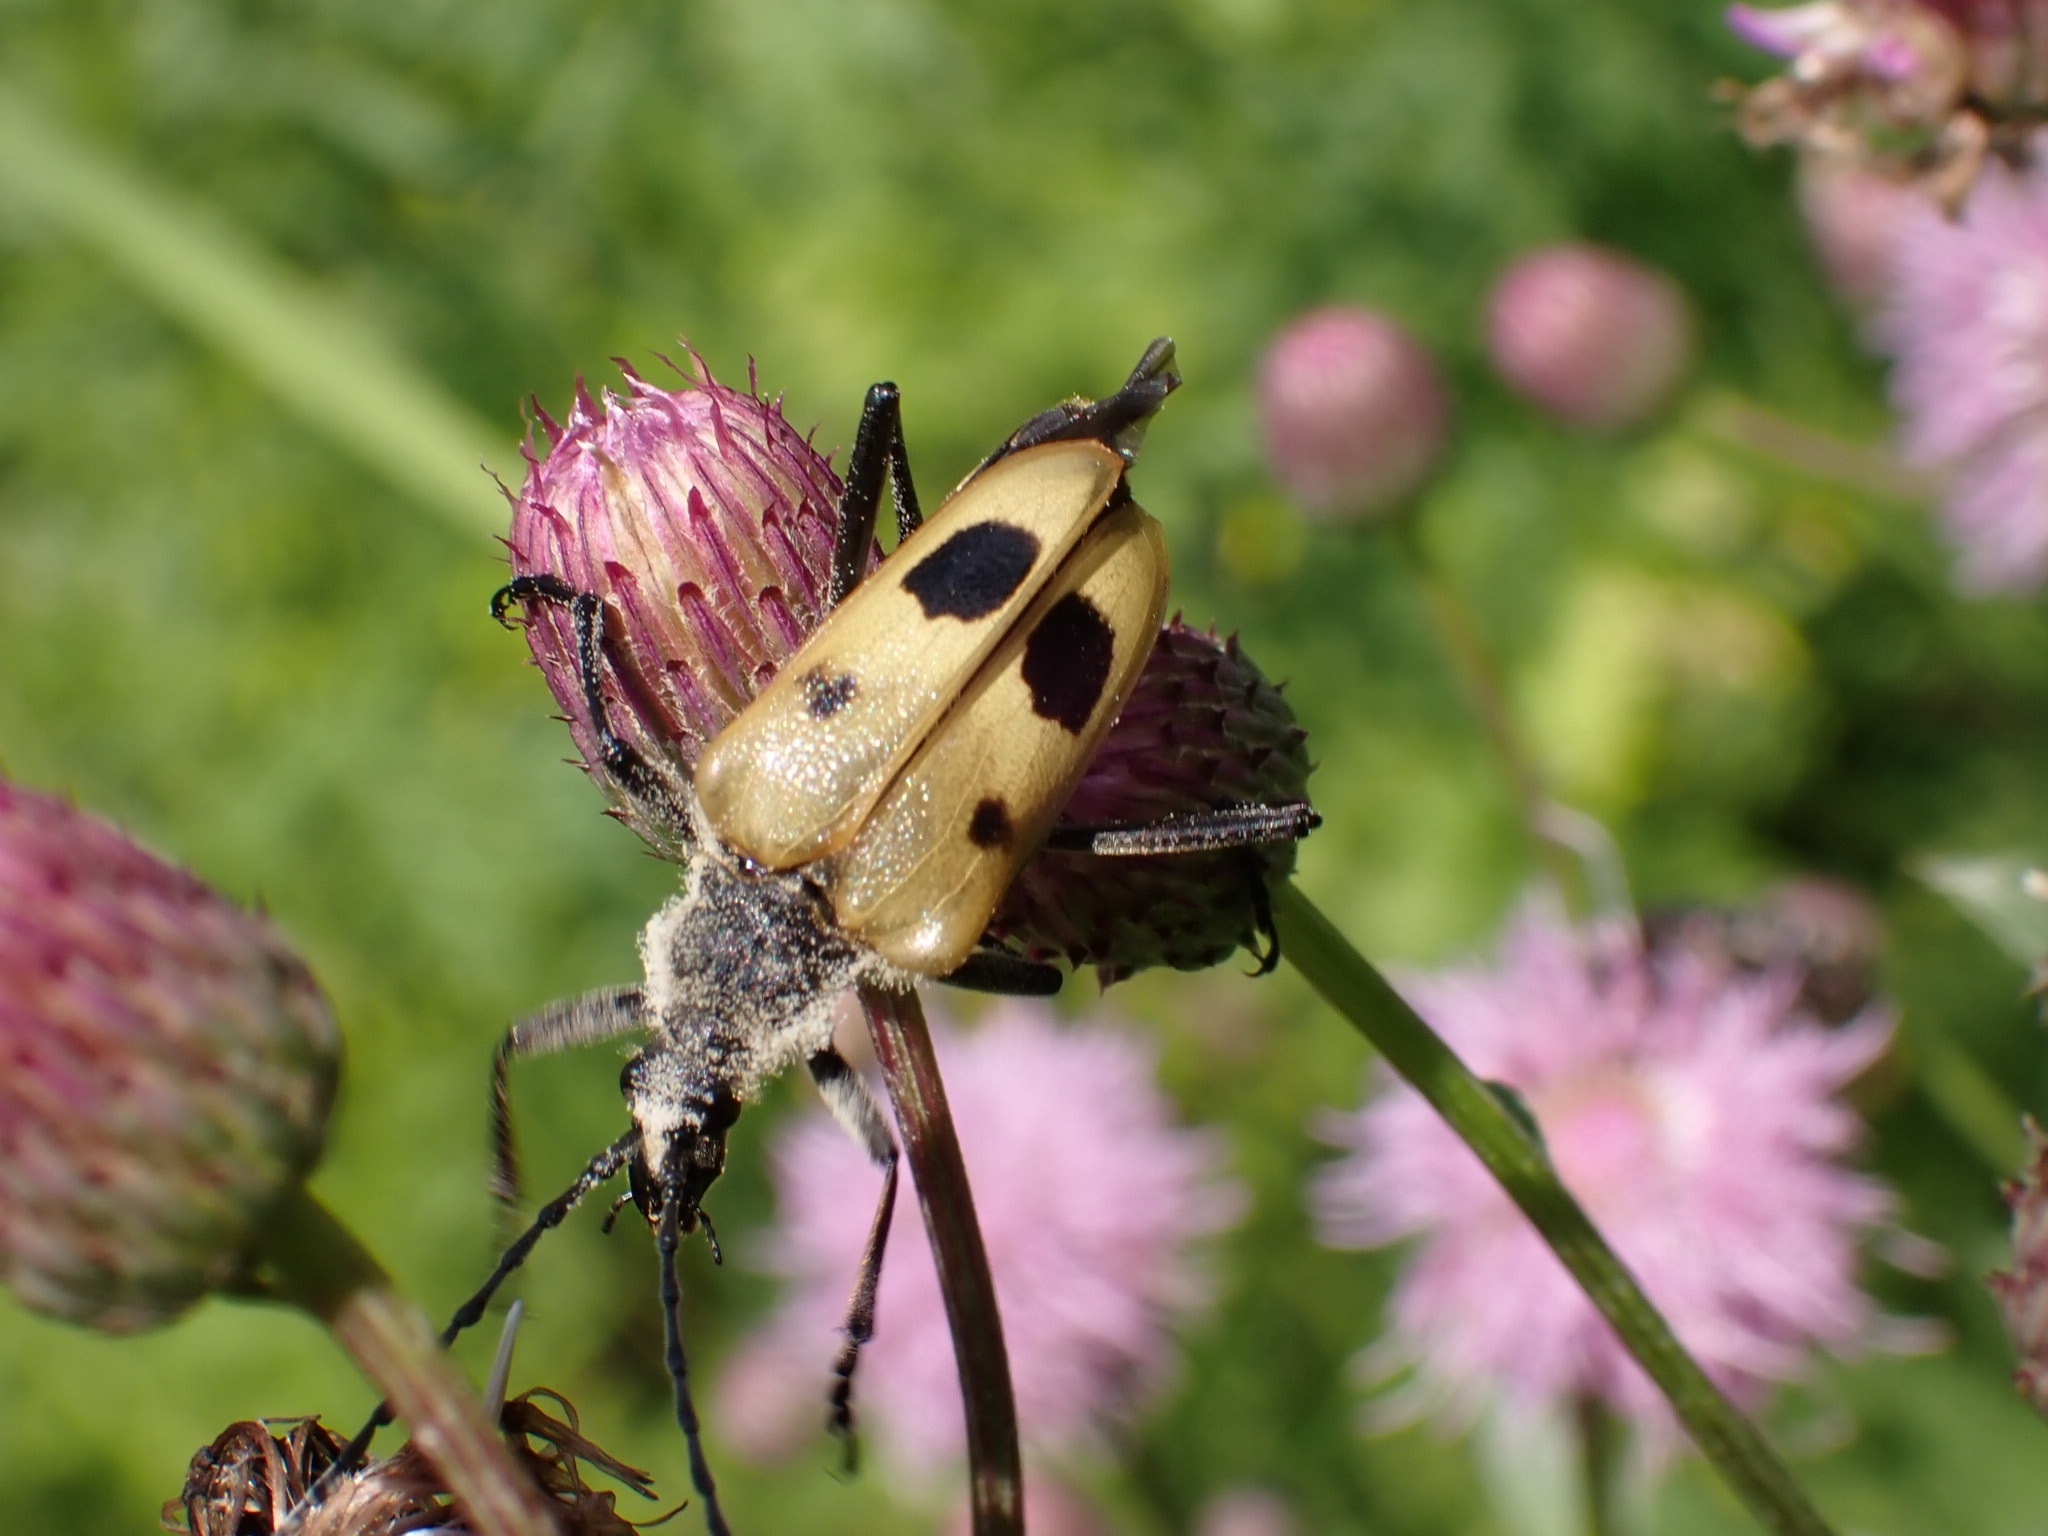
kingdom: Animalia
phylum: Arthropoda
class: Insecta
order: Coleoptera
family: Cerambycidae
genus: Pachyta
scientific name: Pachyta quadrimaculata
